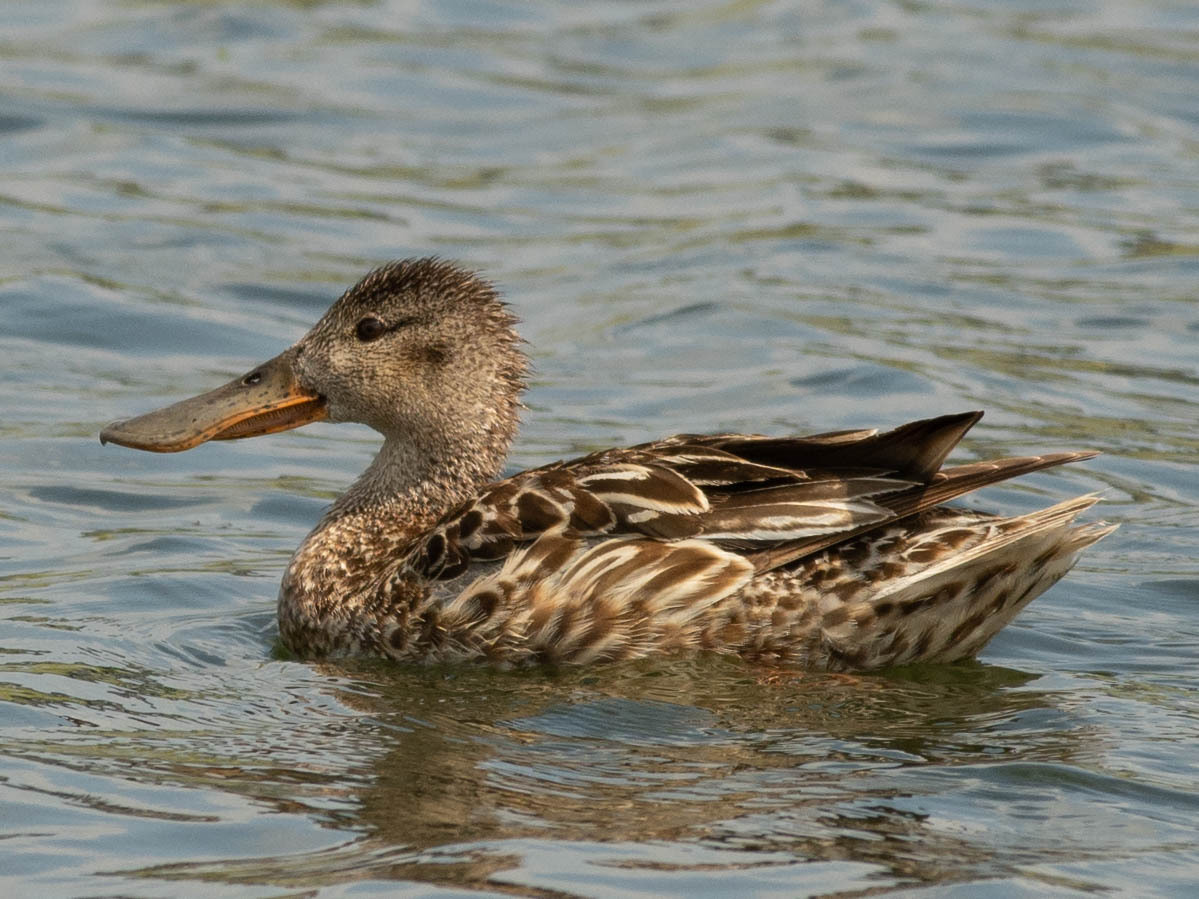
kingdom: Animalia
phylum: Chordata
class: Aves
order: Anseriformes
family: Anatidae
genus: Spatula
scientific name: Spatula clypeata
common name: Northern shoveler
